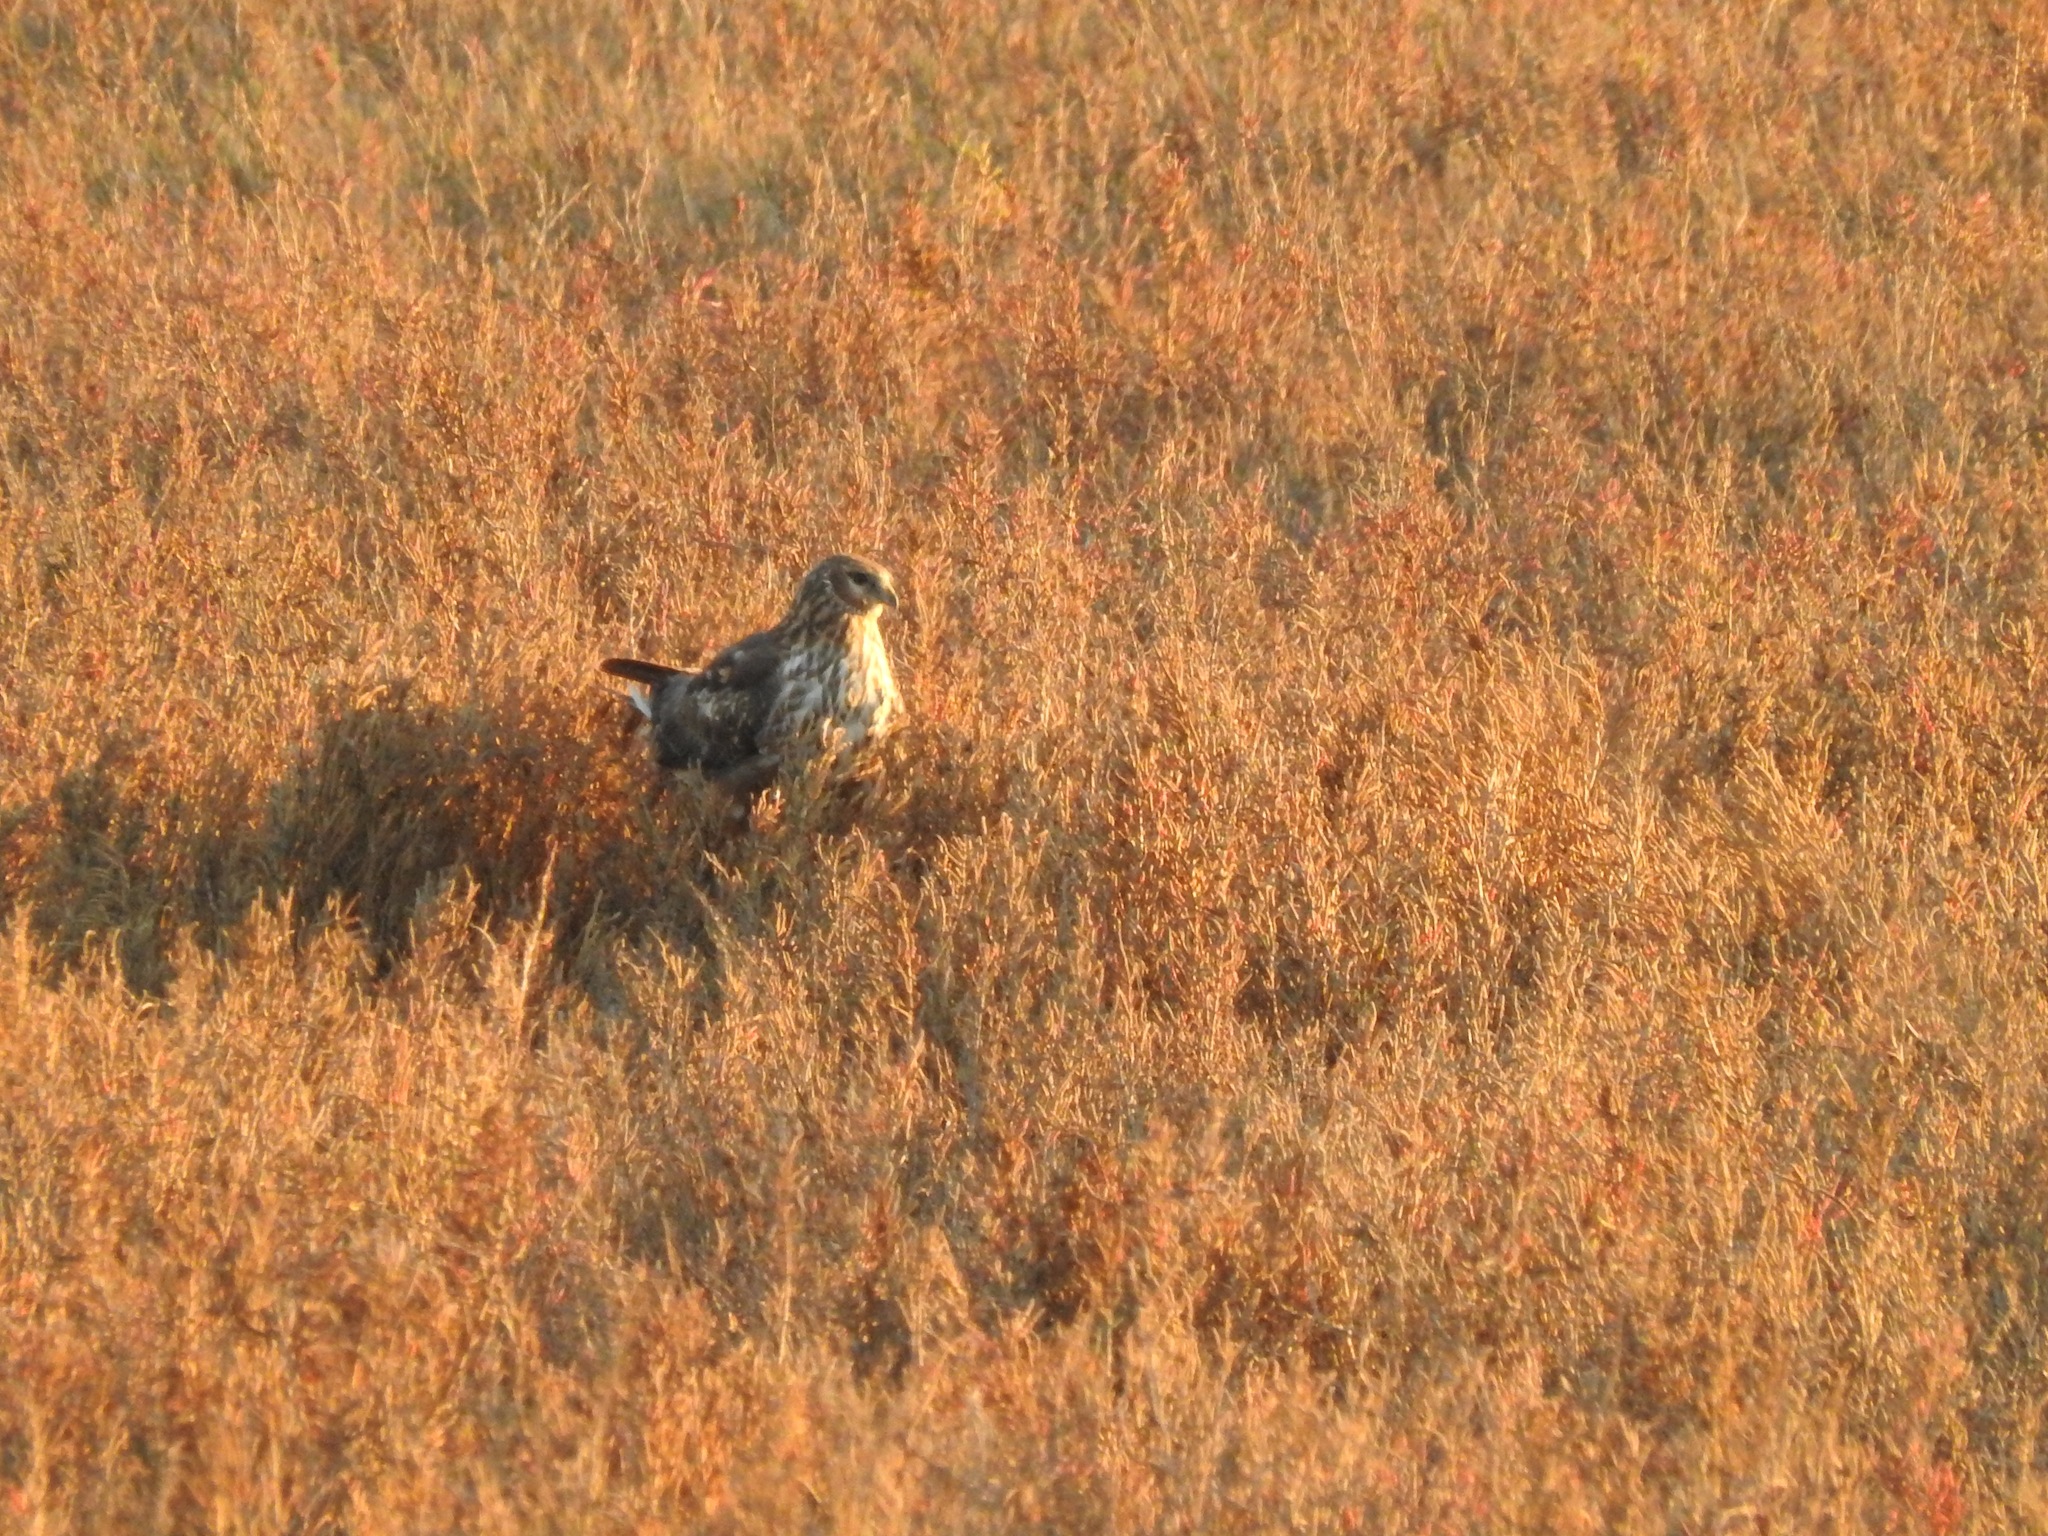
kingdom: Animalia
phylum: Chordata
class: Aves
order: Accipitriformes
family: Accipitridae
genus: Circus
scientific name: Circus cyaneus
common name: Hen harrier
